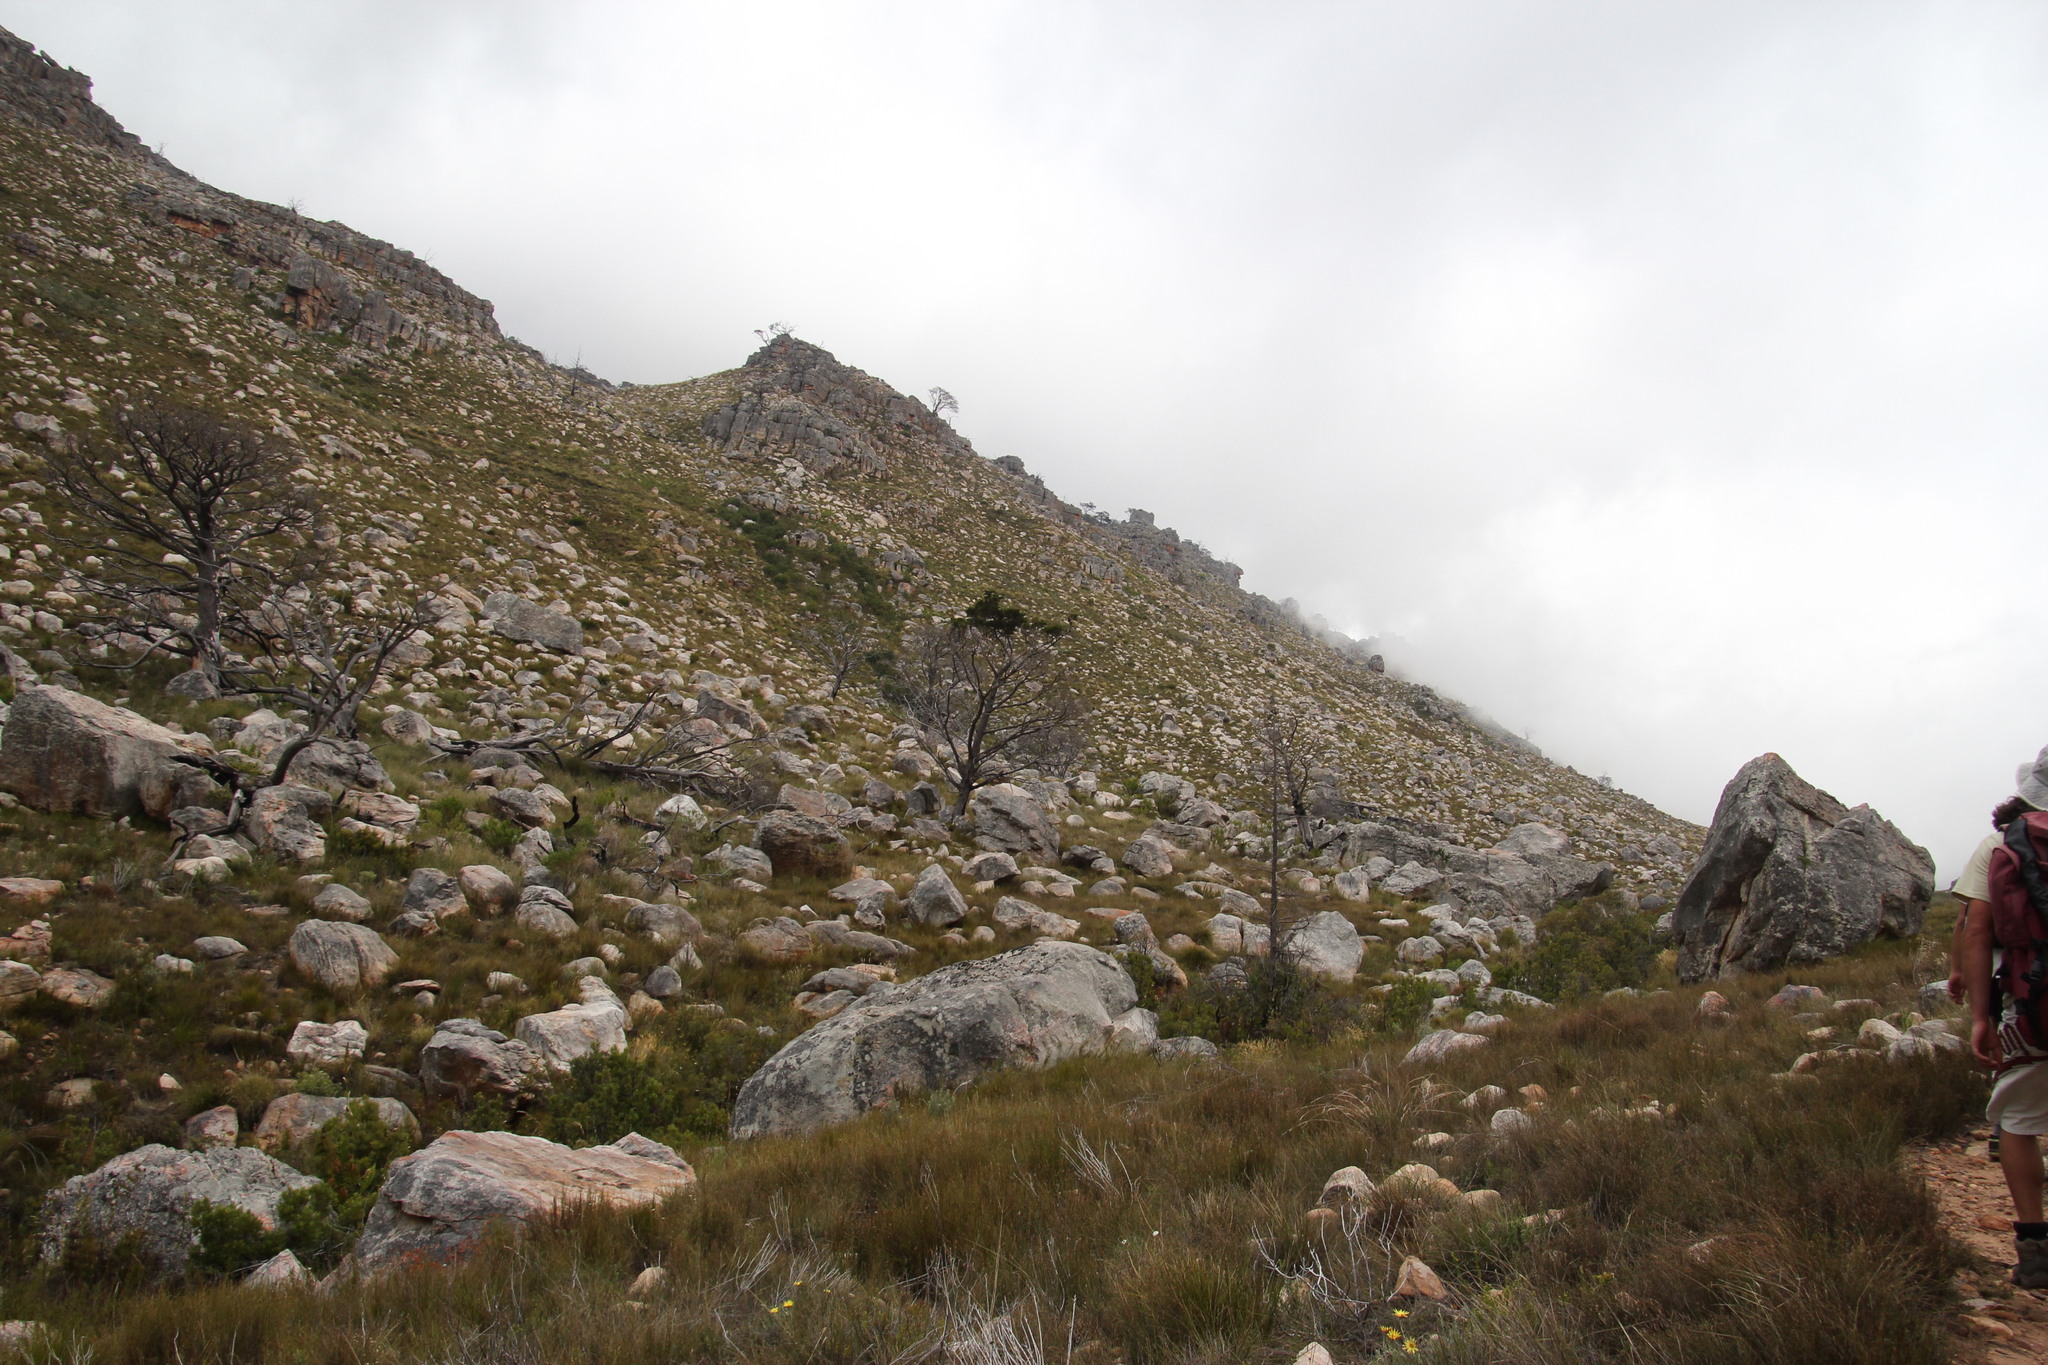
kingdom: Plantae
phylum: Tracheophyta
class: Pinopsida
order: Pinales
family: Cupressaceae
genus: Widdringtonia
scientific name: Widdringtonia nodiflora
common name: Cape cypress
